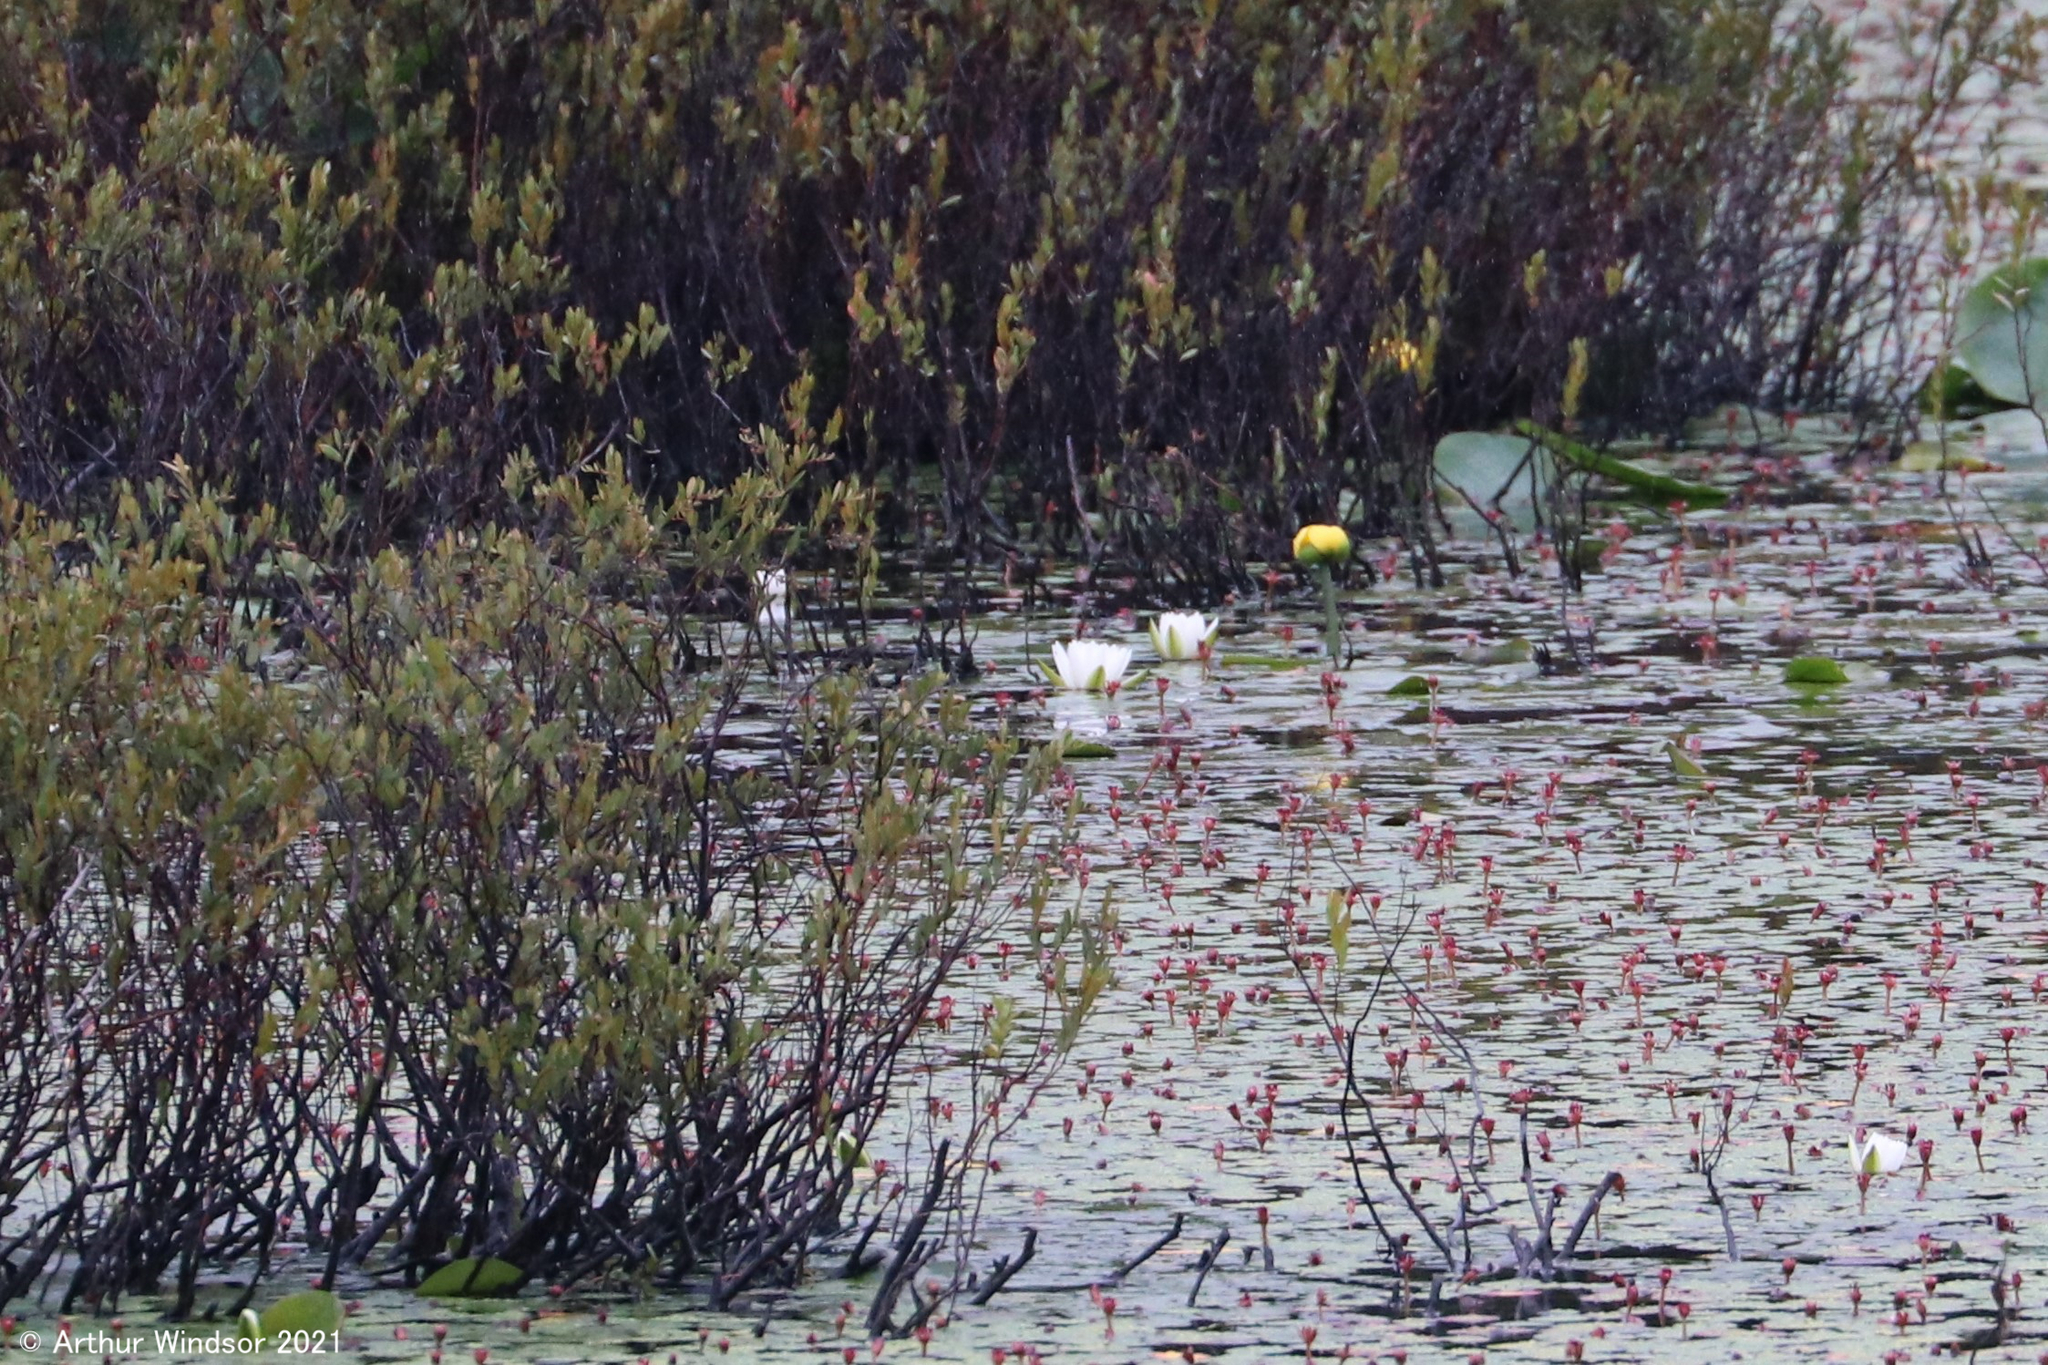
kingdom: Plantae
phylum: Tracheophyta
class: Magnoliopsida
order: Nymphaeales
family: Nymphaeaceae
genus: Nymphaea
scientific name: Nymphaea odorata
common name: Fragrant water-lily
